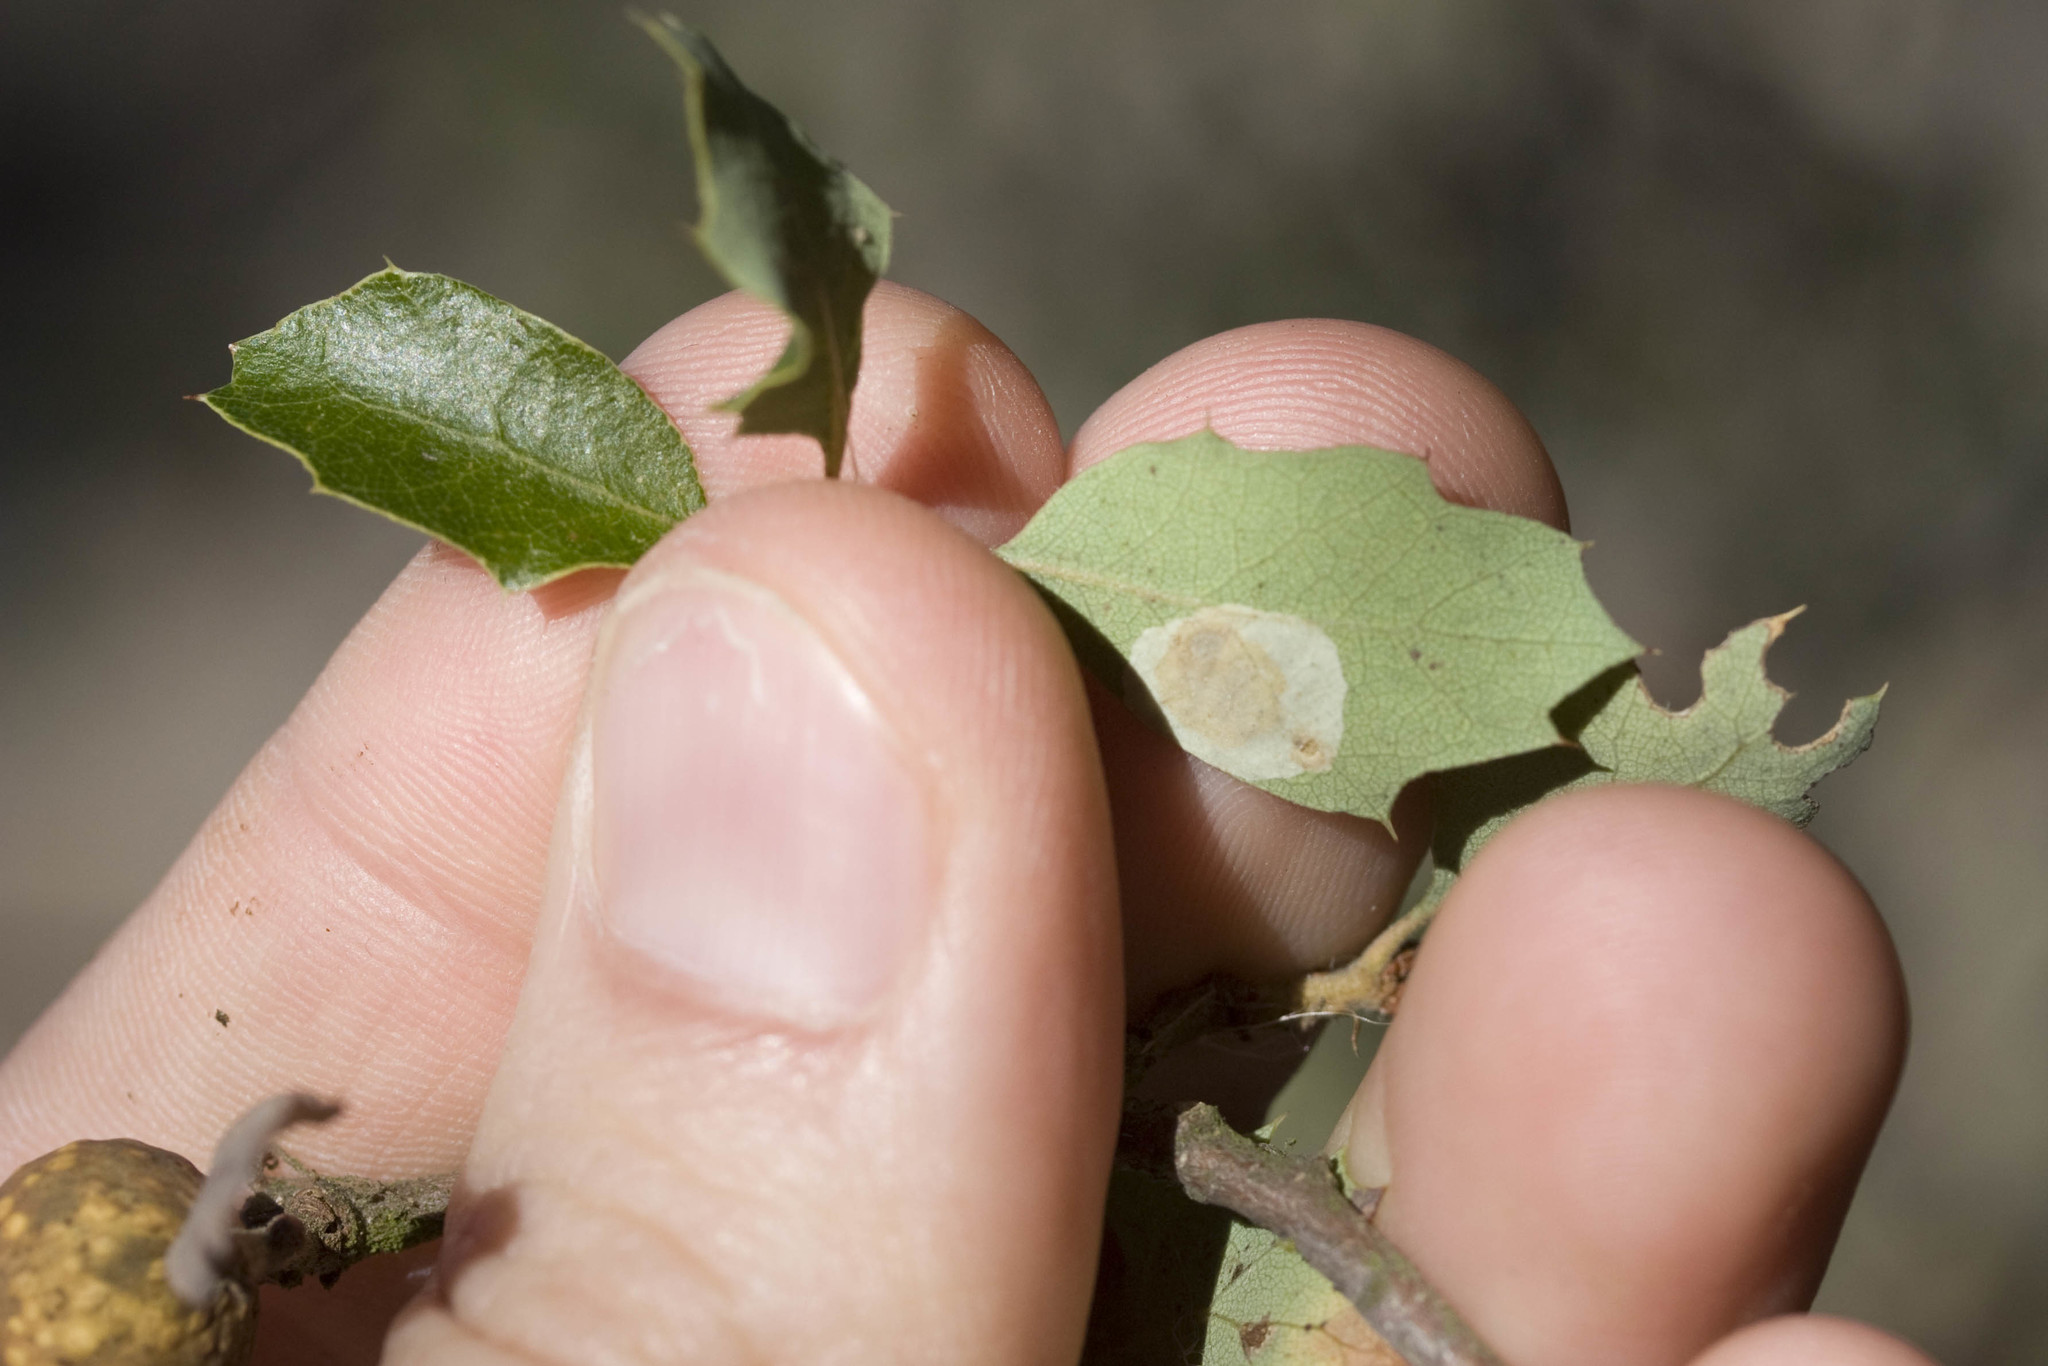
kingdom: Animalia
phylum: Arthropoda
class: Insecta
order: Hymenoptera
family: Cynipidae
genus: Burnettweldia
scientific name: Burnettweldia
